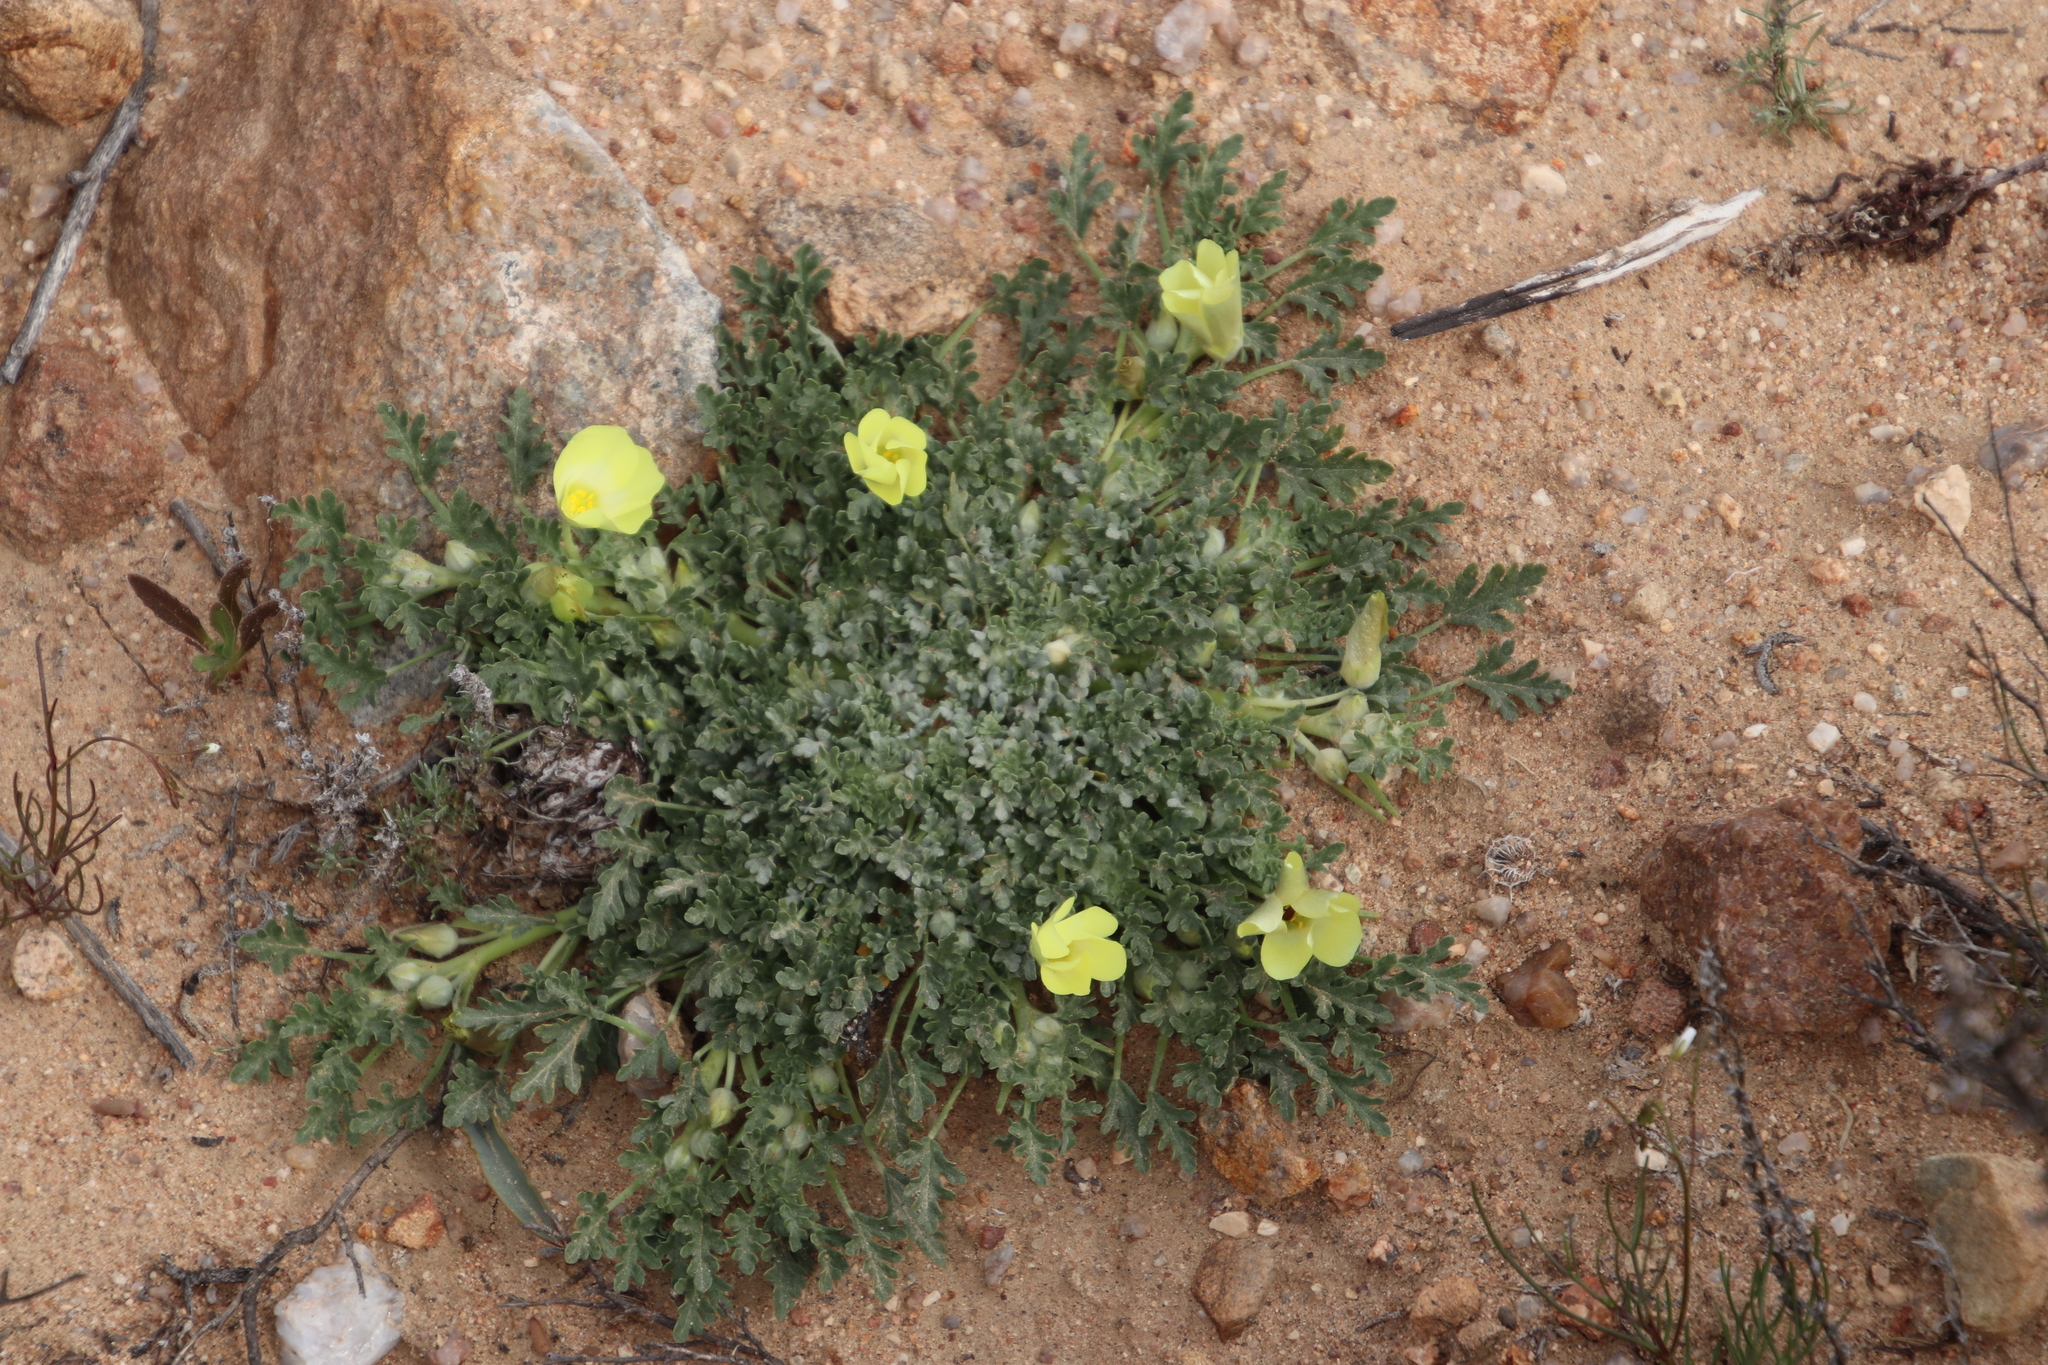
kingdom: Plantae
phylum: Tracheophyta
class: Magnoliopsida
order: Malvales
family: Neuradaceae
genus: Grielum
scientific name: Grielum humifusum
